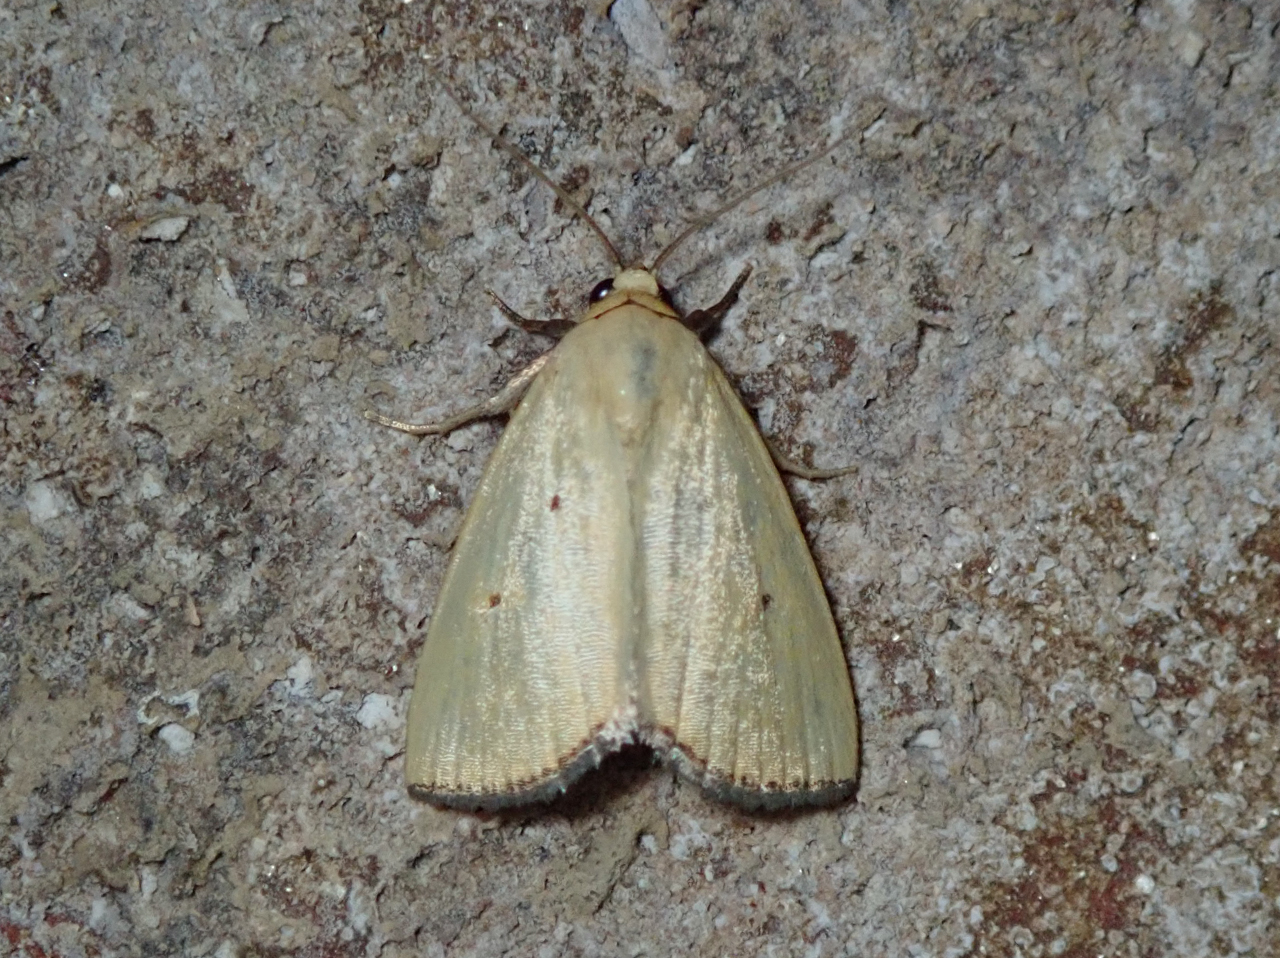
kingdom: Animalia
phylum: Arthropoda
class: Insecta
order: Lepidoptera
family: Noctuidae
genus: Marimatha
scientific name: Marimatha nigrofimbria
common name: Black-bordered lemon moth
